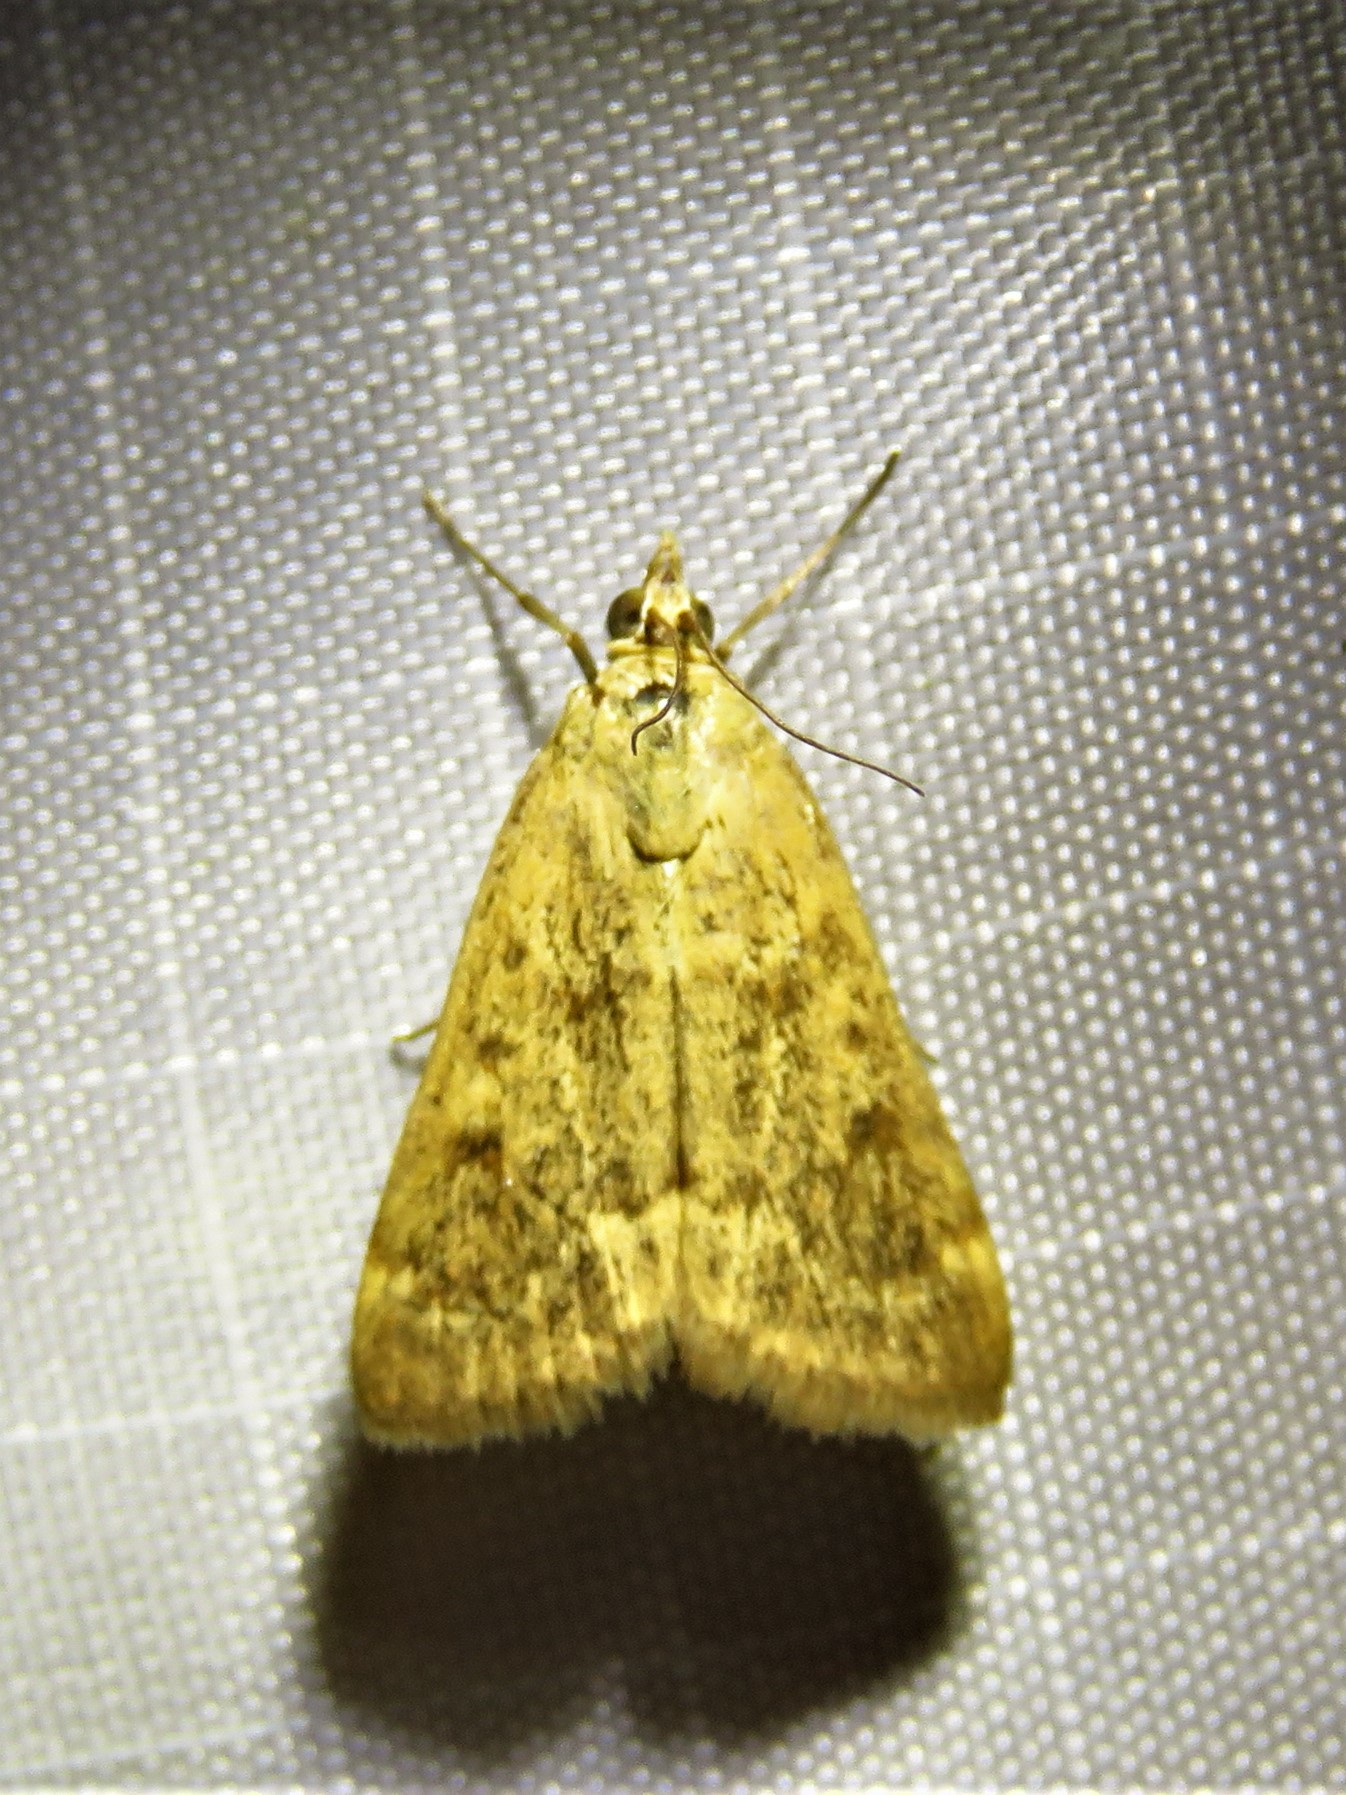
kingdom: Animalia
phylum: Arthropoda
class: Insecta
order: Lepidoptera
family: Crambidae
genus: Achyra
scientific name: Achyra rantalis
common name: Garden webworm
